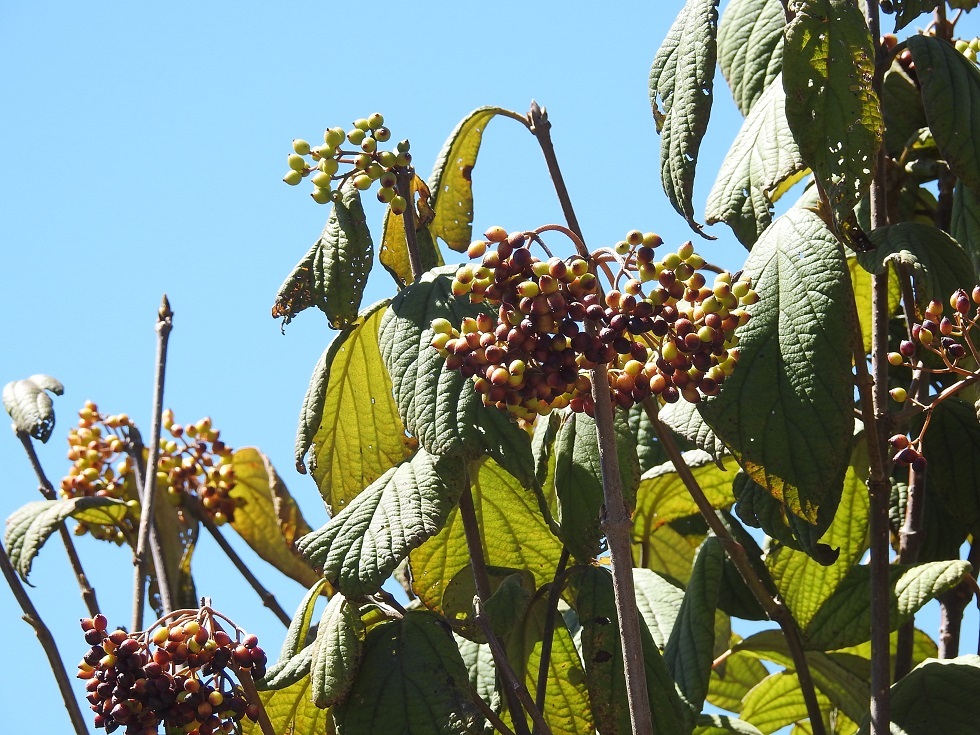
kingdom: Plantae
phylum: Tracheophyta
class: Magnoliopsida
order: Dipsacales
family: Viburnaceae
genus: Viburnum
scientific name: Viburnum jucundum
